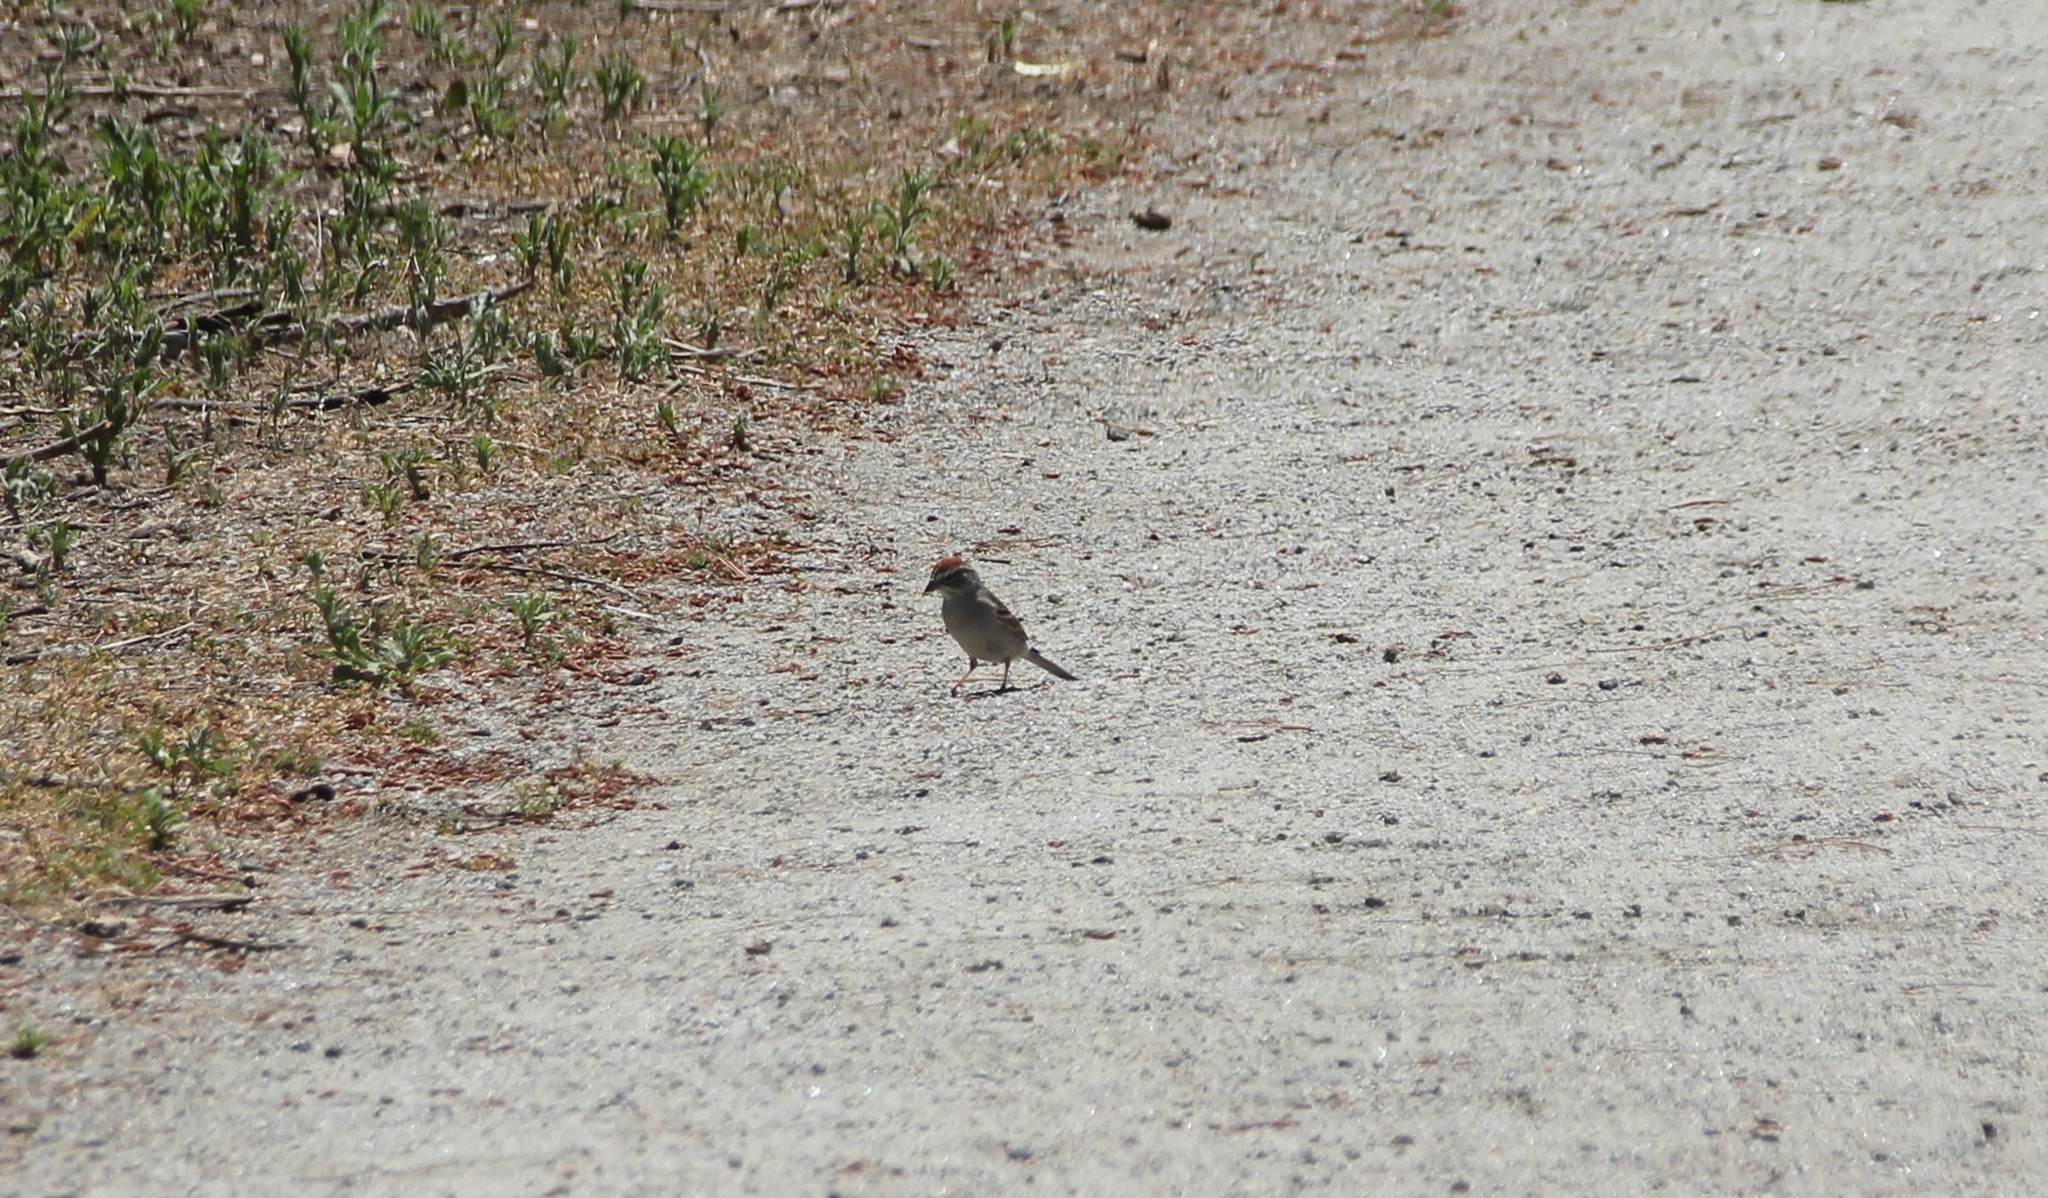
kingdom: Animalia
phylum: Chordata
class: Aves
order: Passeriformes
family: Passerellidae
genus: Spizella
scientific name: Spizella passerina
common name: Chipping sparrow
